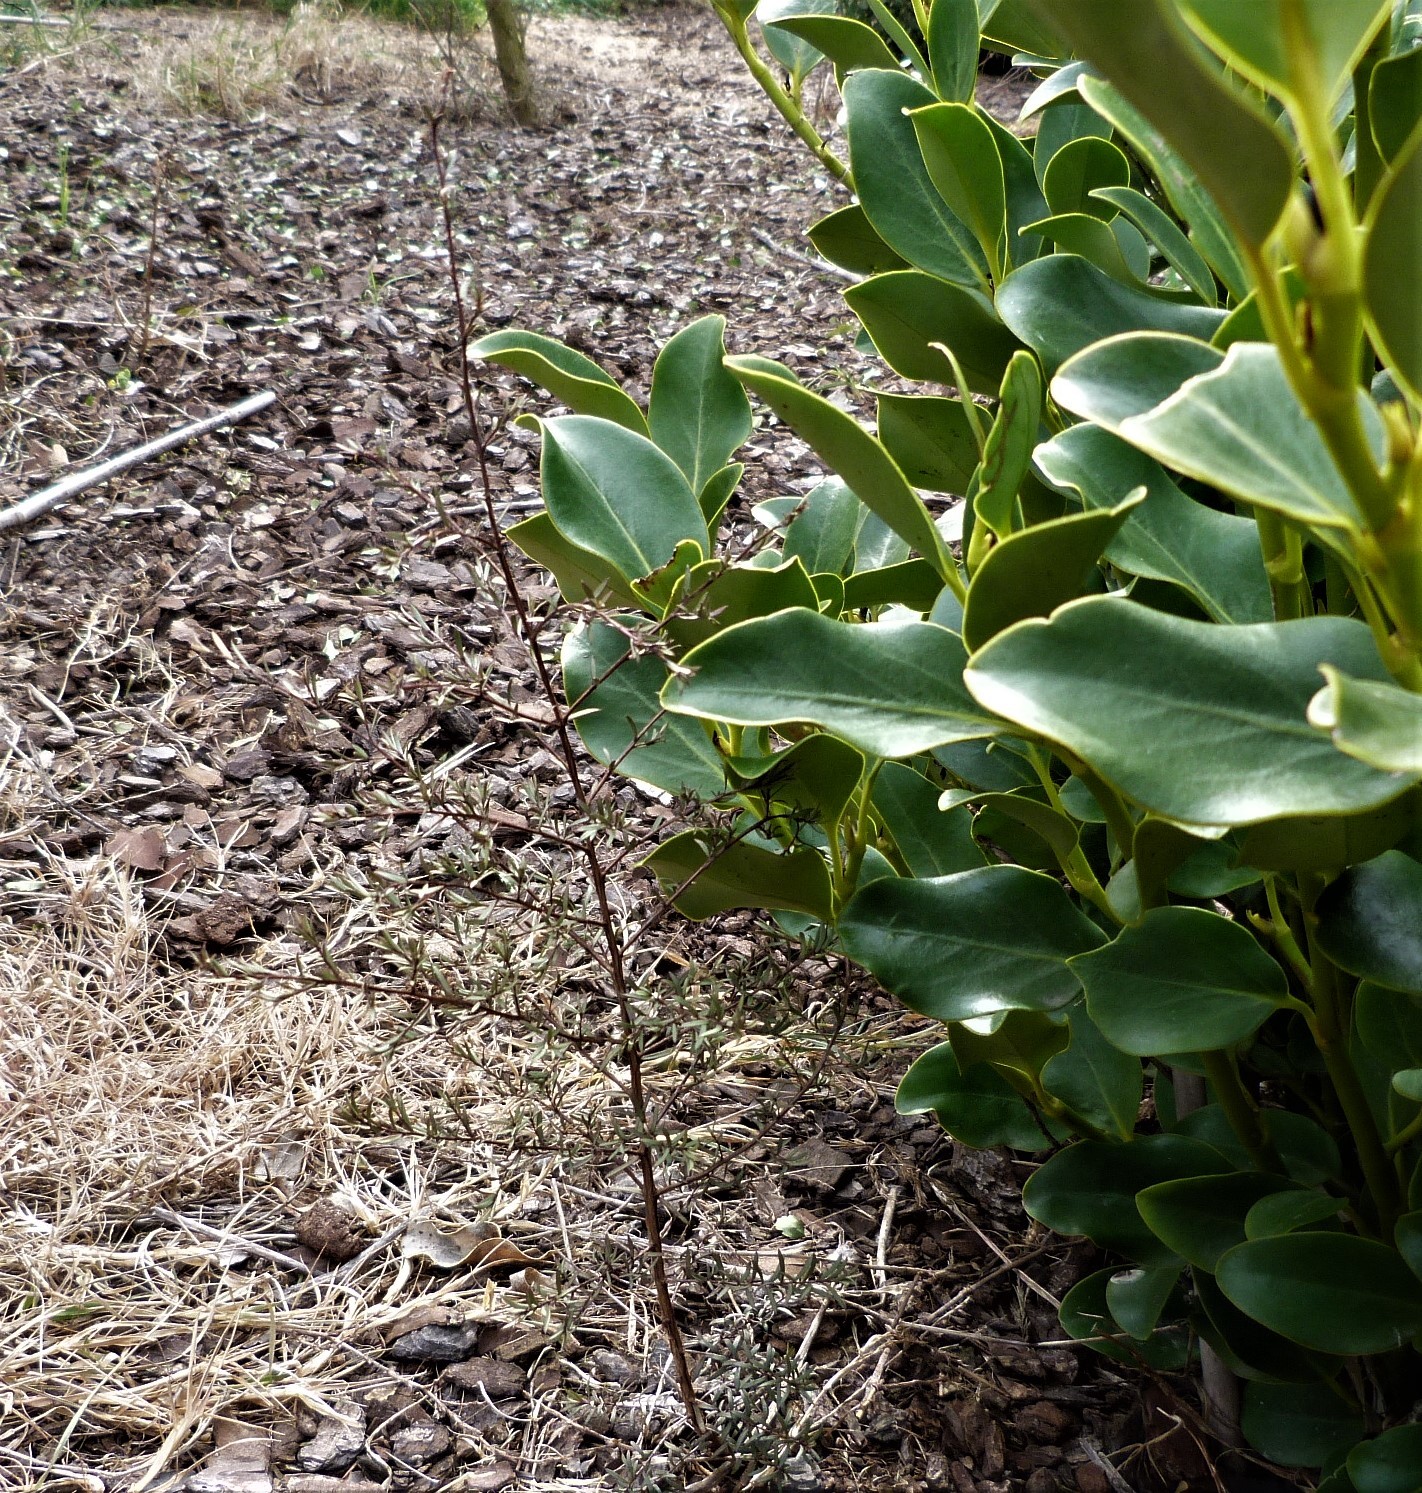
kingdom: Plantae
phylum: Tracheophyta
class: Magnoliopsida
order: Myrtales
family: Myrtaceae
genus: Kunzea
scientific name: Kunzea robusta
